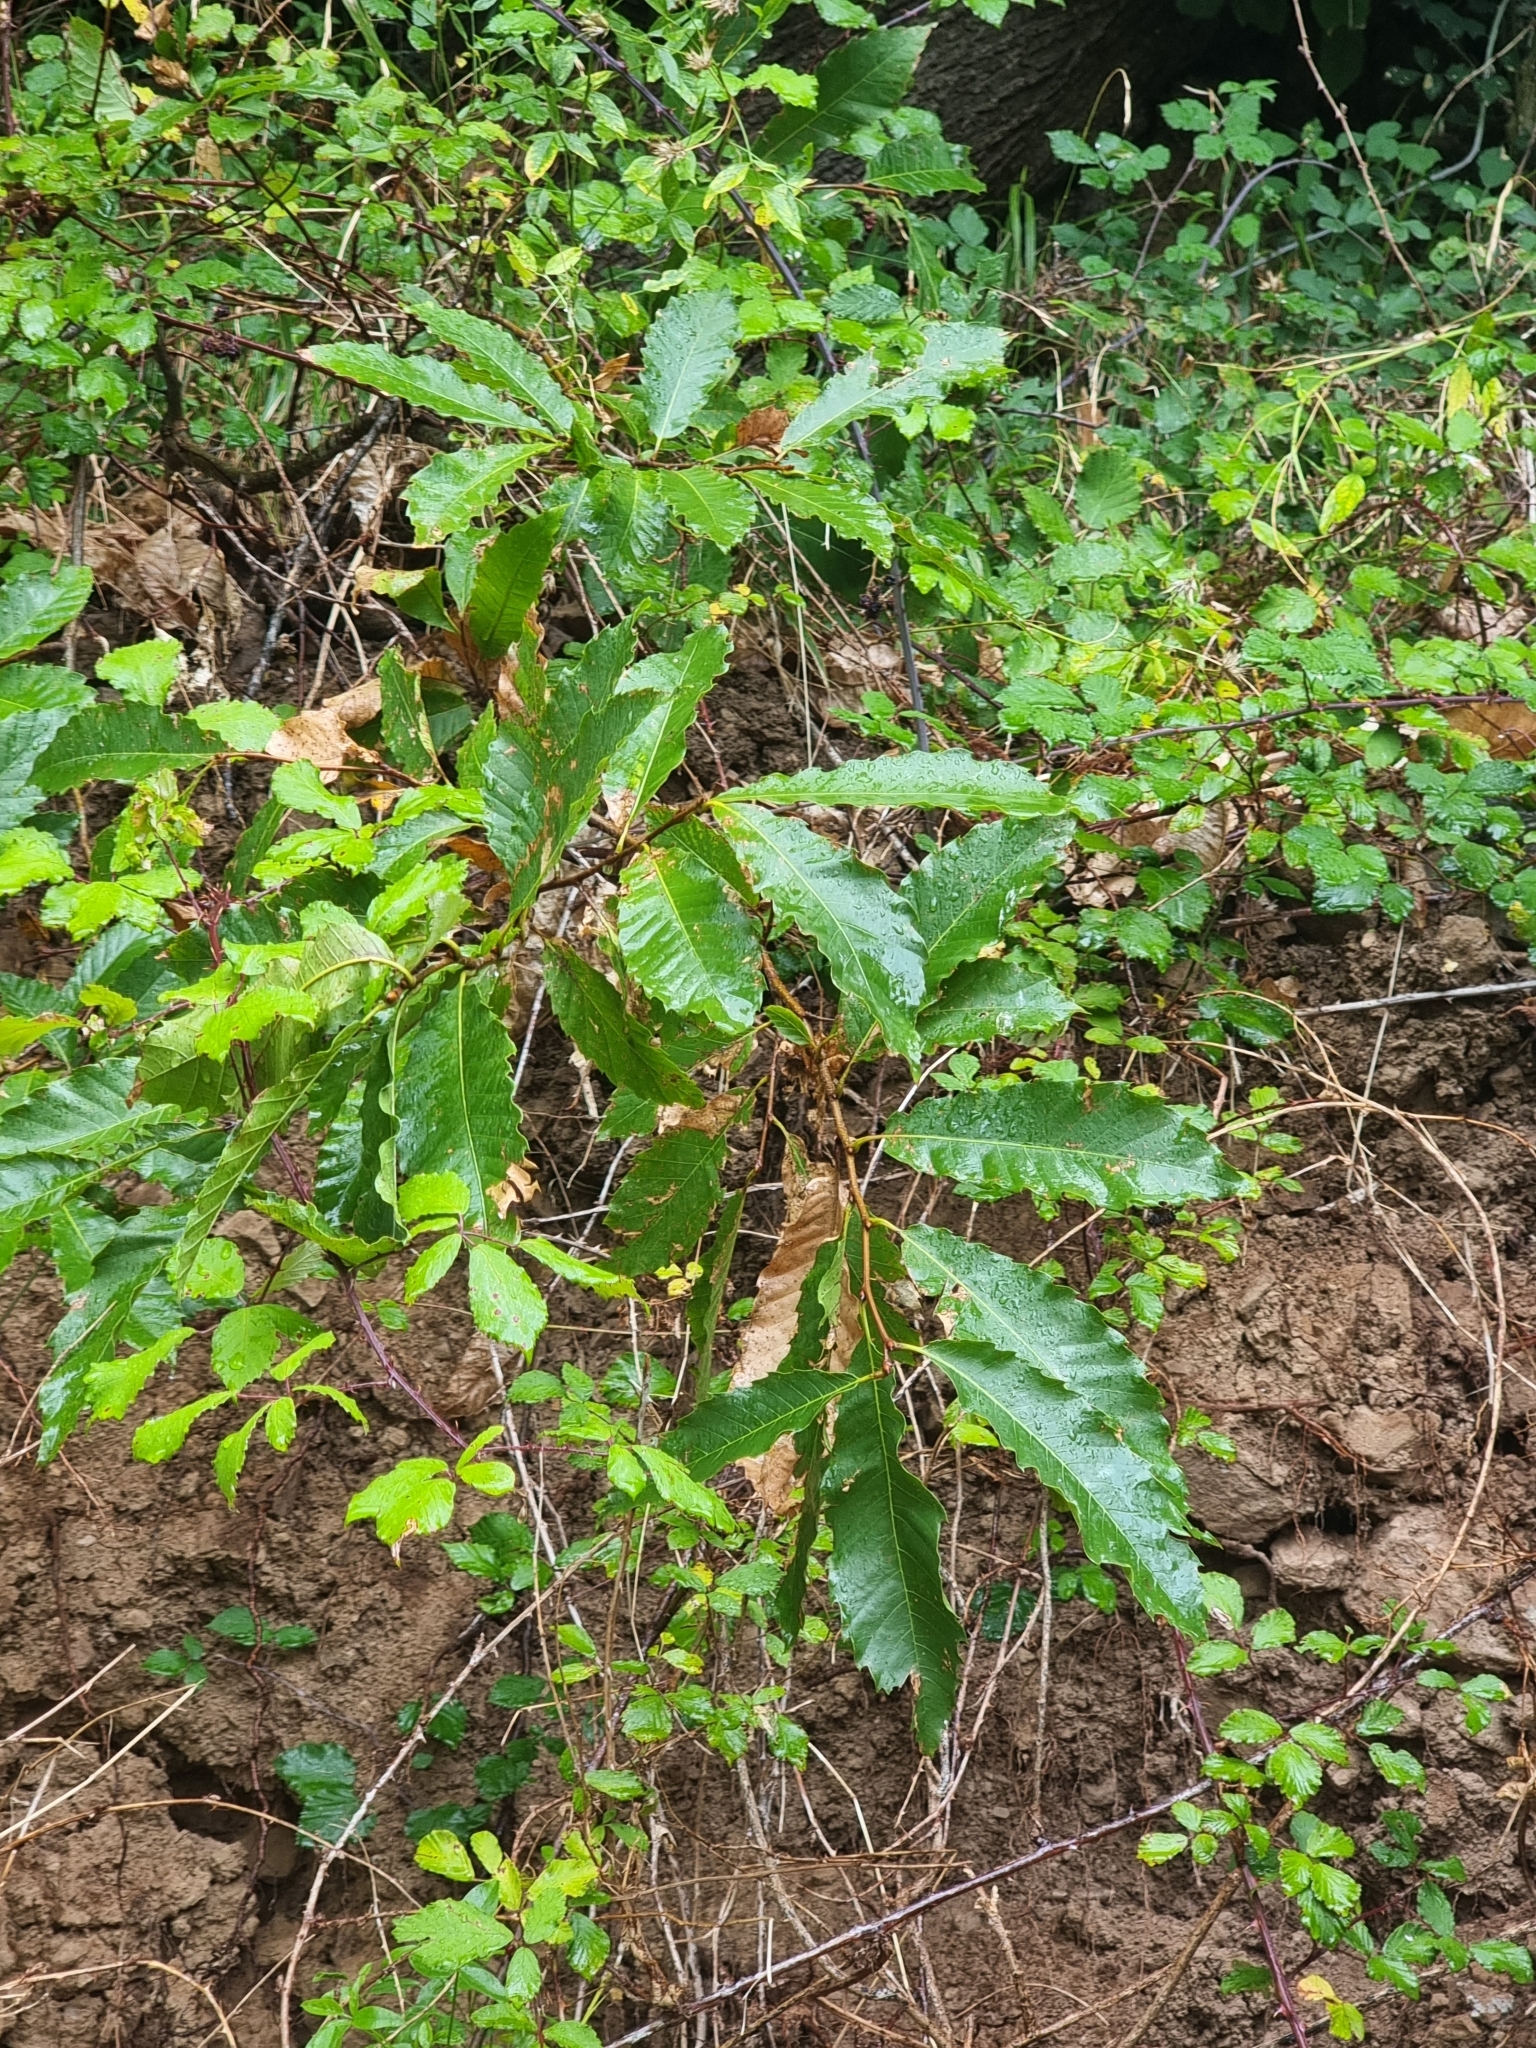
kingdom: Plantae
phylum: Tracheophyta
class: Magnoliopsida
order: Fagales
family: Fagaceae
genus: Castanea
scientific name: Castanea sativa
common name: Sweet chestnut
